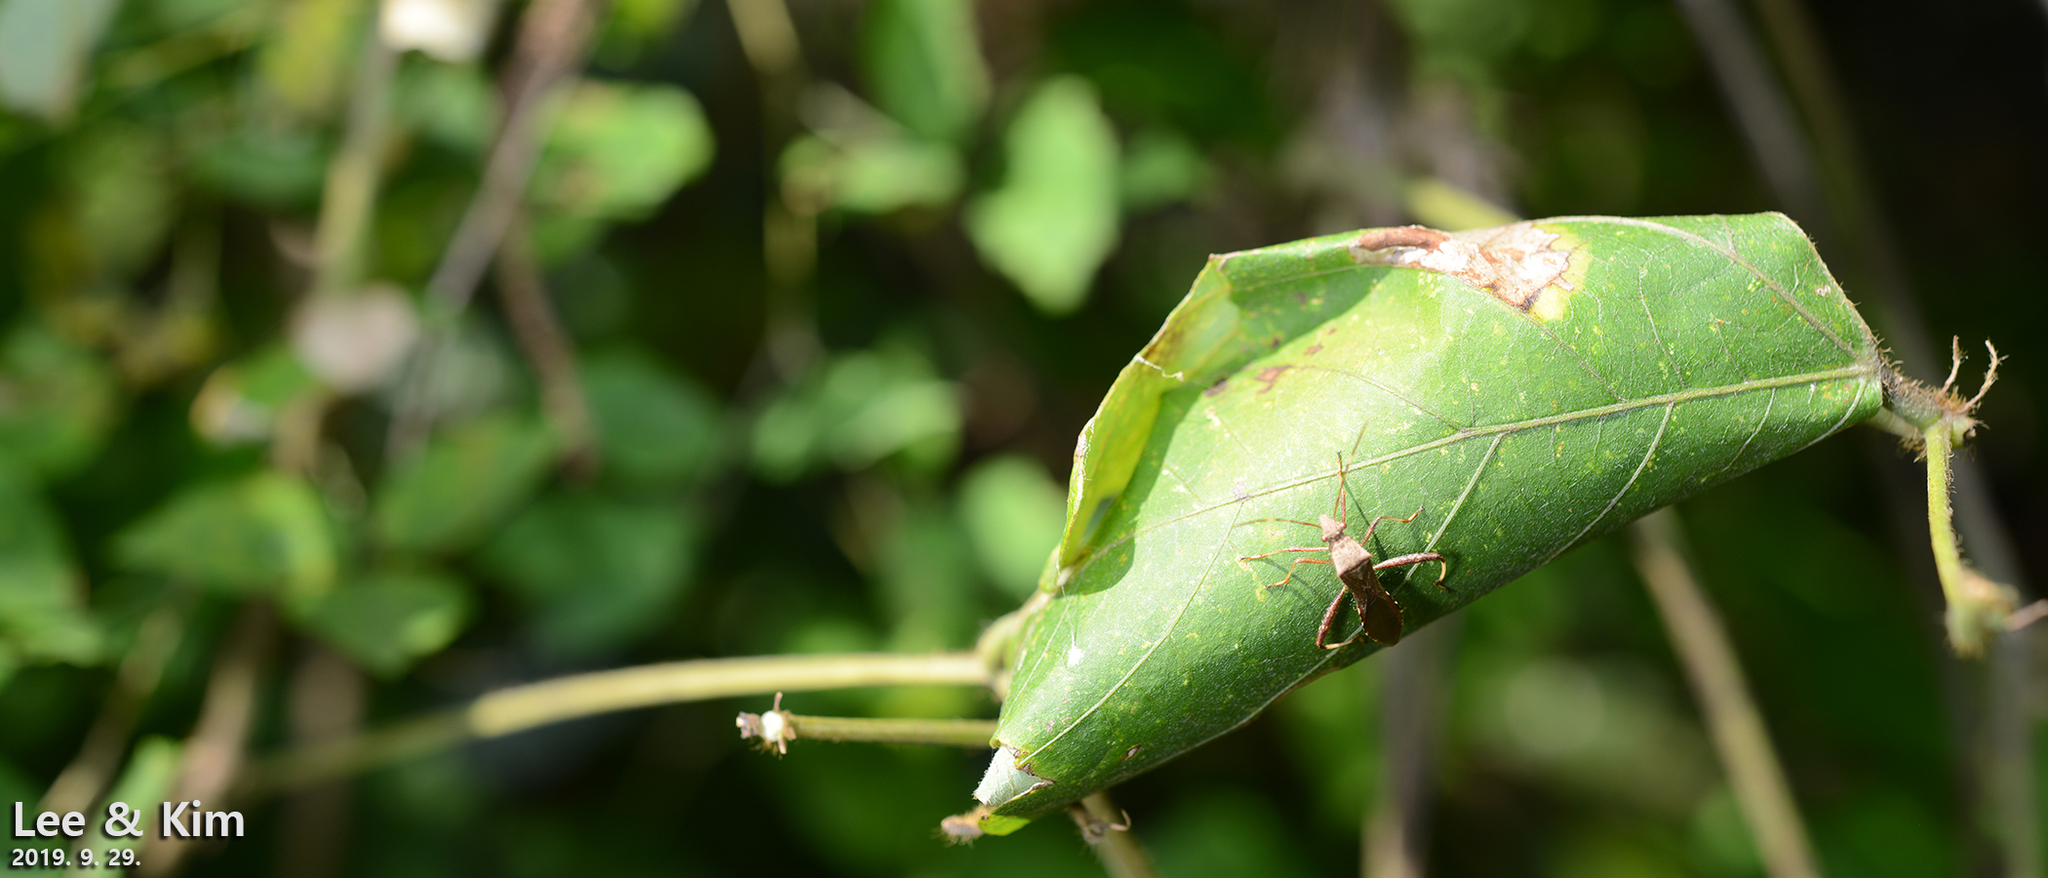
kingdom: Animalia
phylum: Arthropoda
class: Insecta
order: Hemiptera
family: Alydidae
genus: Riptortus
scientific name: Riptortus pedestris
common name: Bean bug
